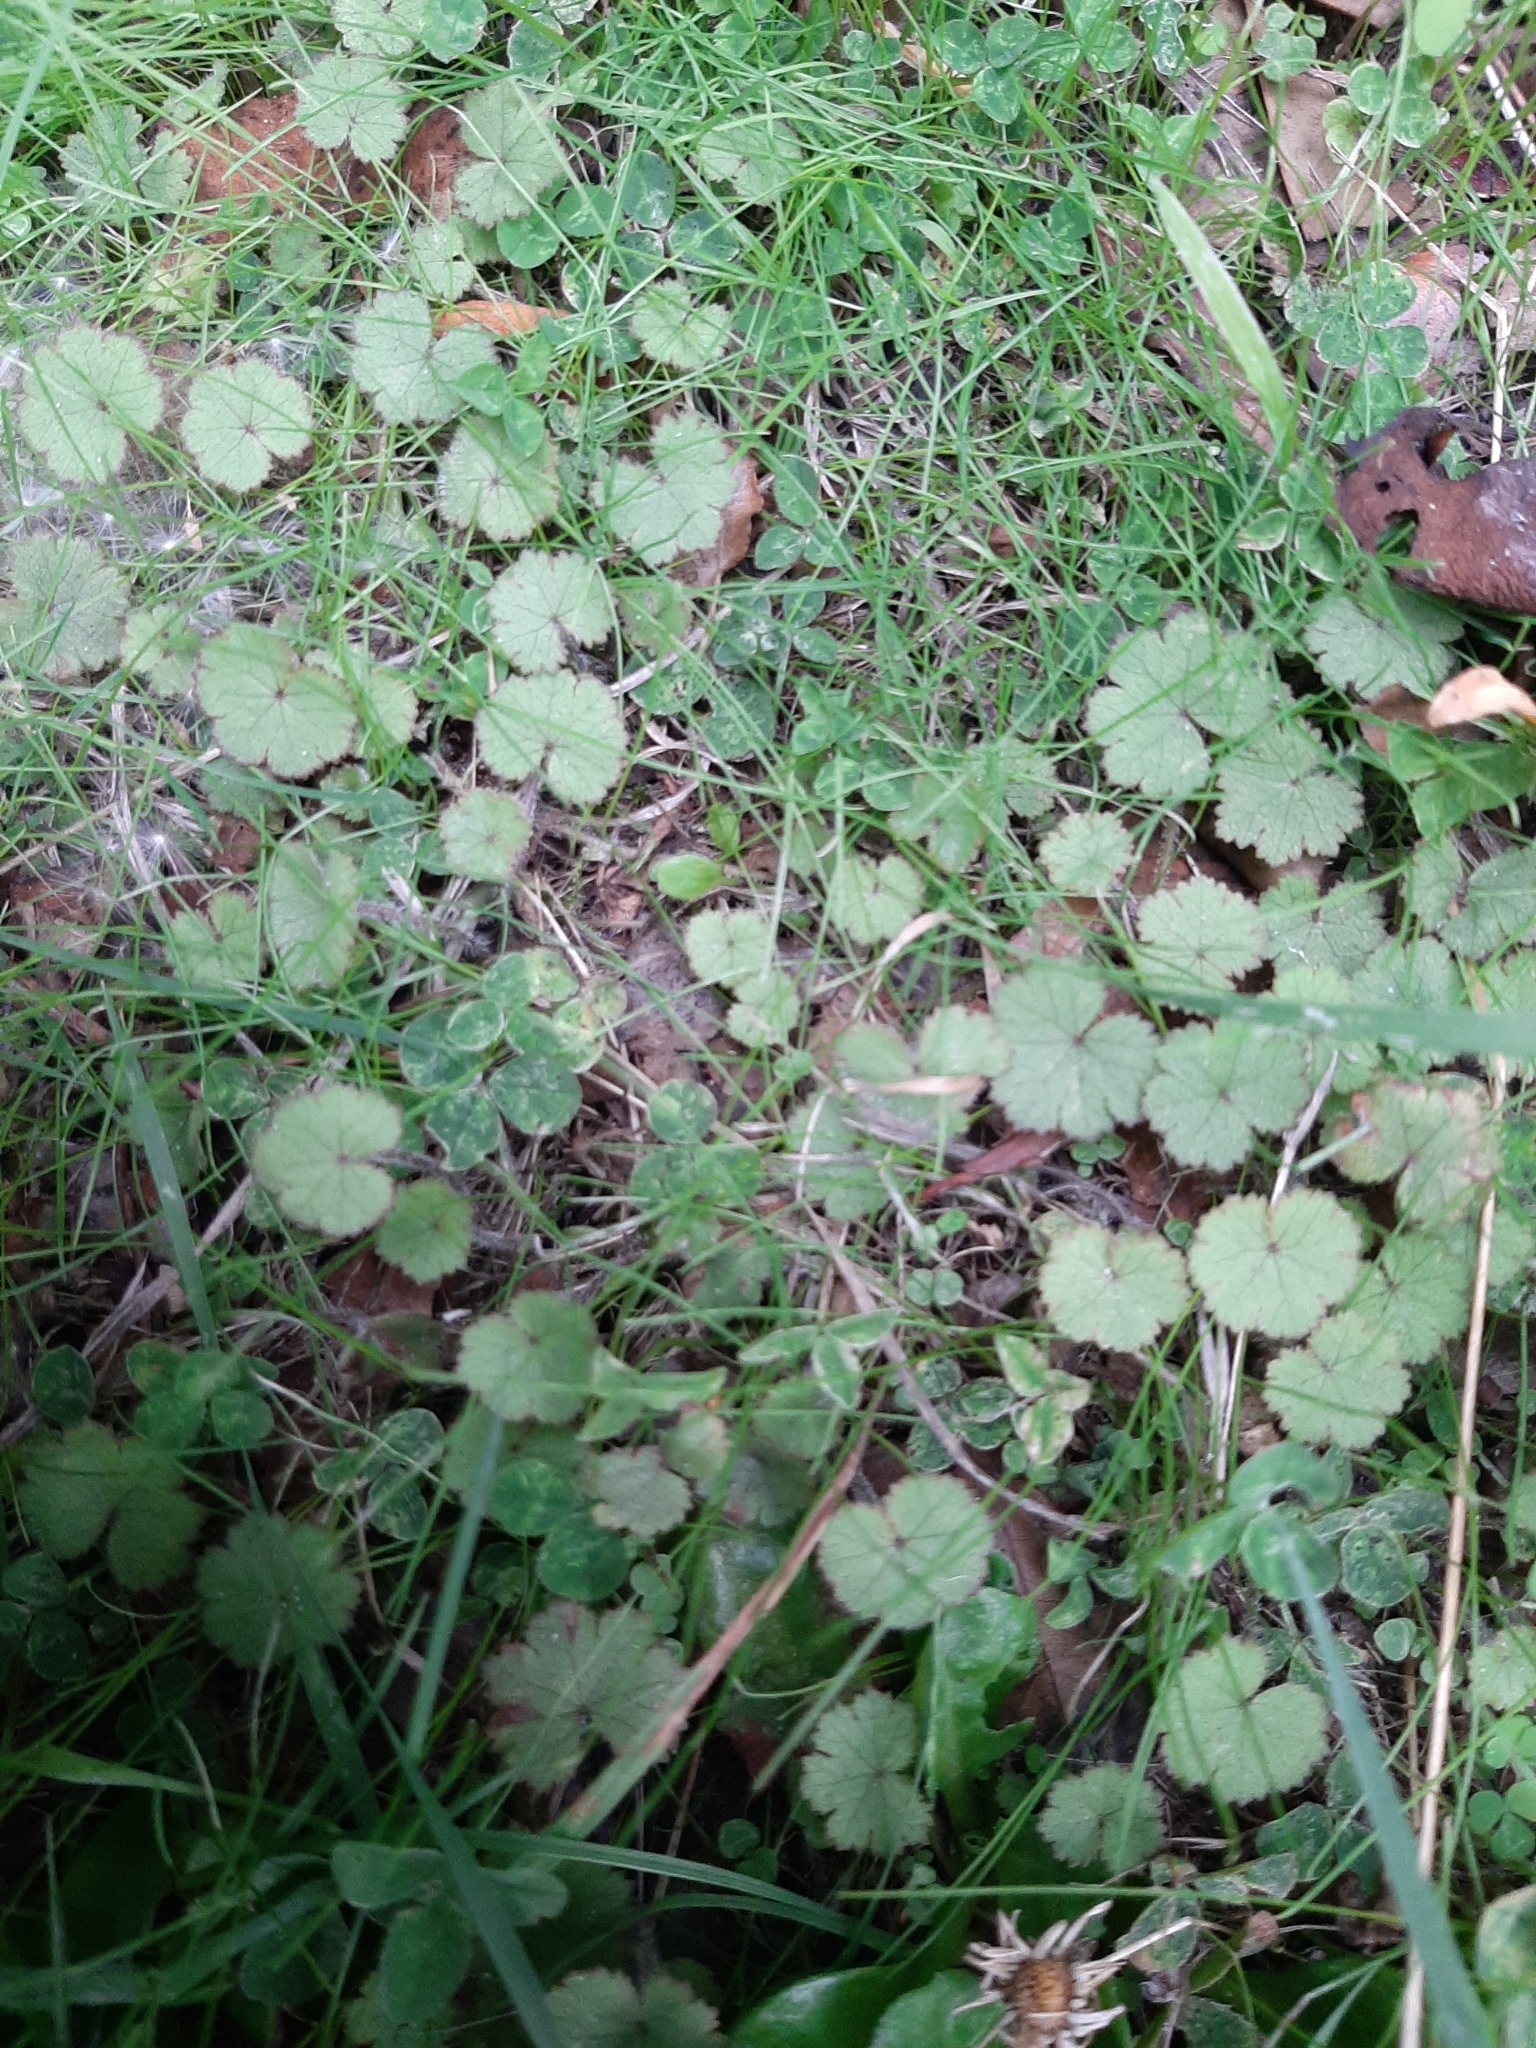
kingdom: Plantae
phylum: Tracheophyta
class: Magnoliopsida
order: Apiales
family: Araliaceae
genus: Hydrocotyle
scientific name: Hydrocotyle moschata
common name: Hairy pennywort
